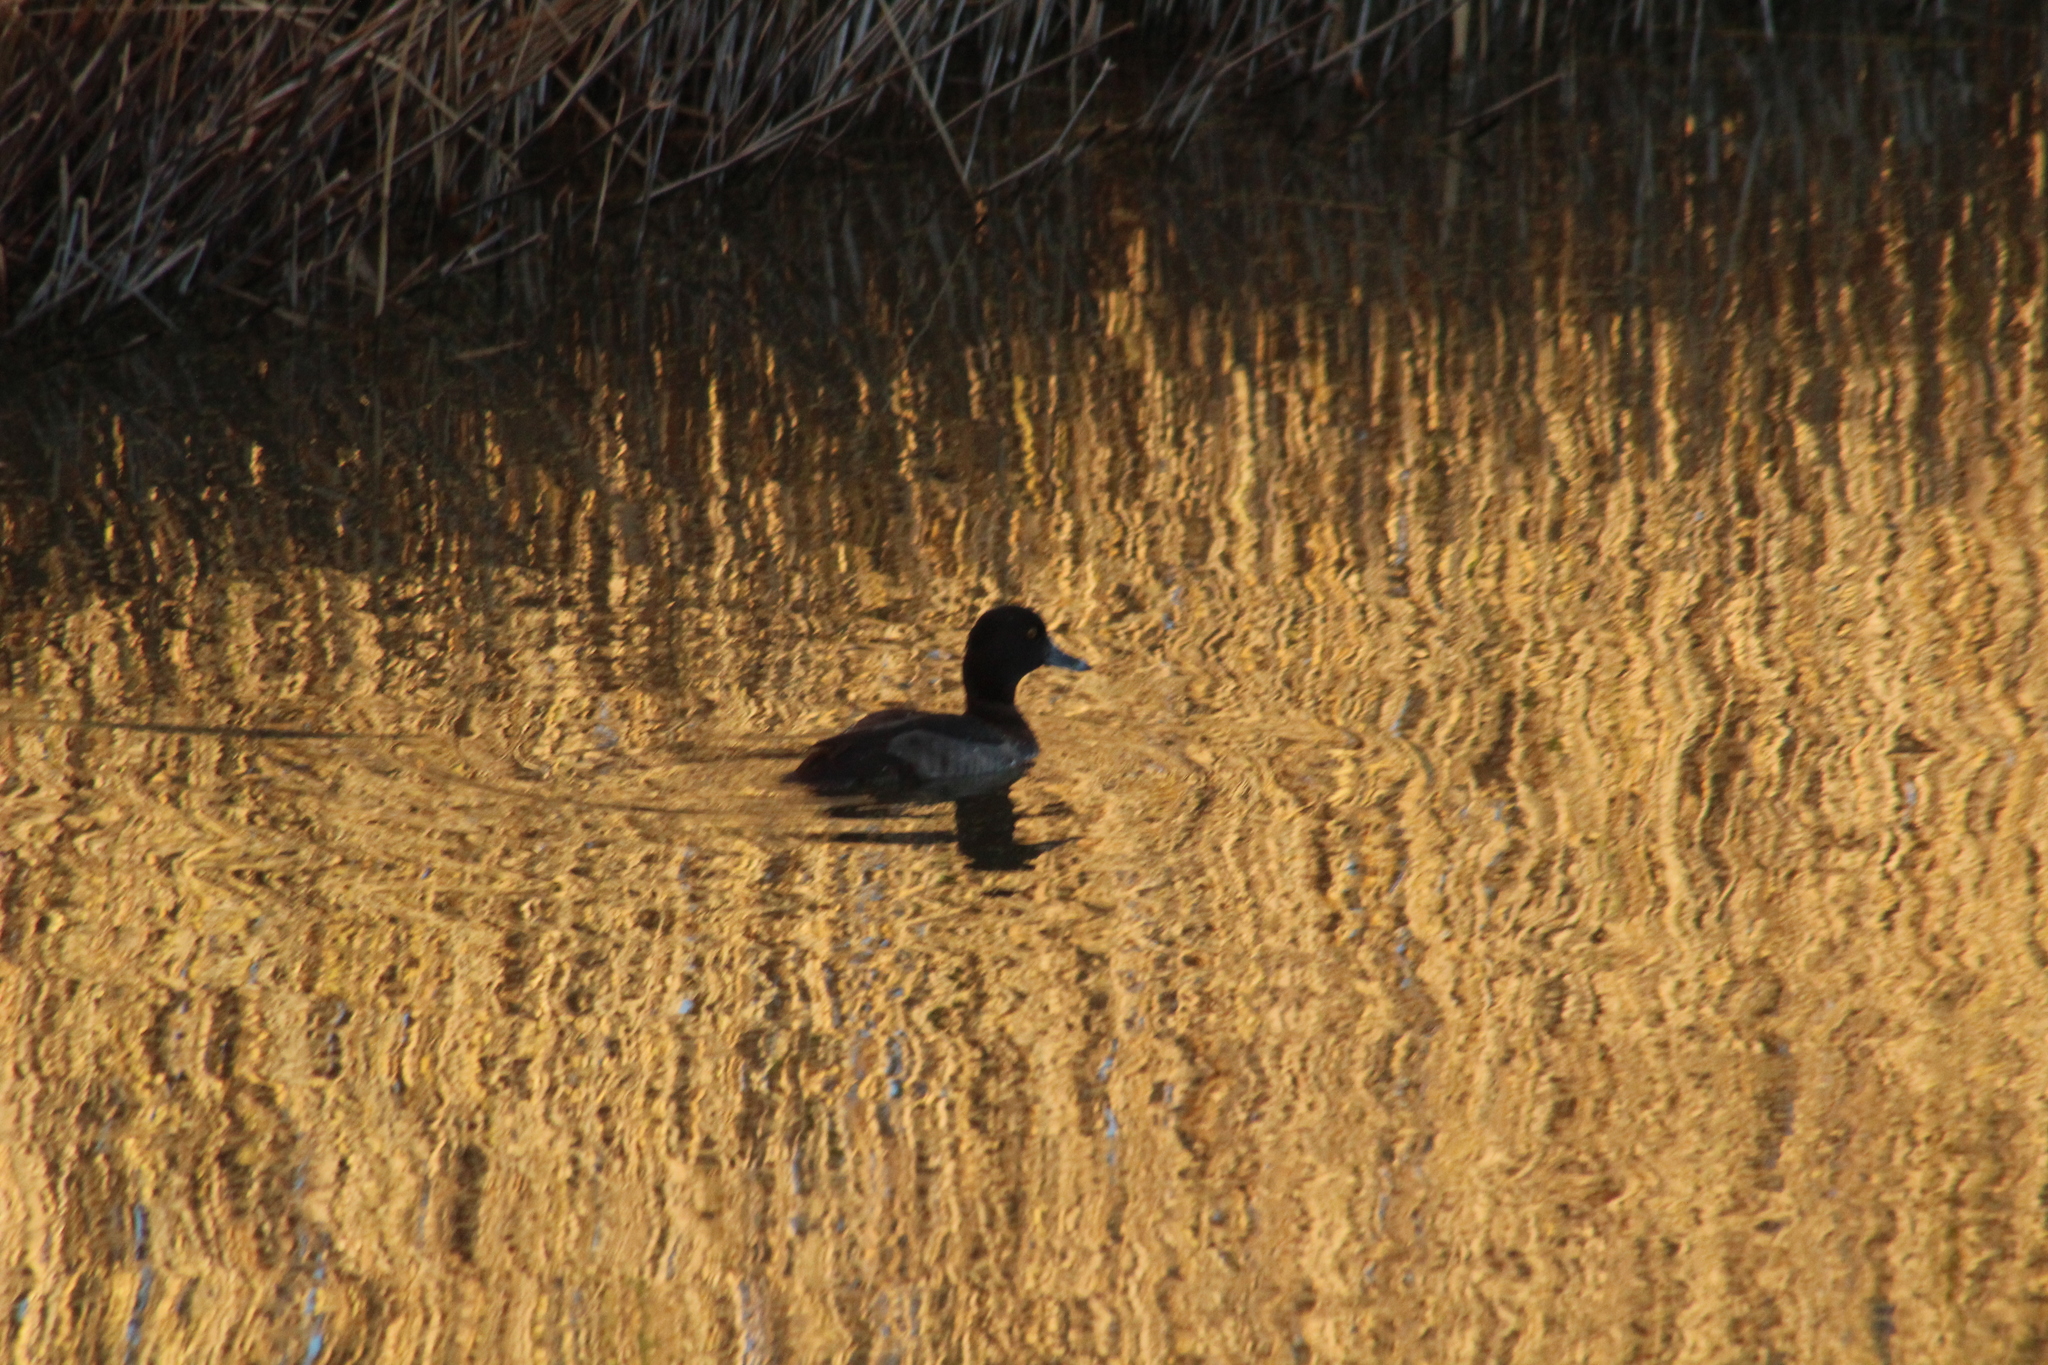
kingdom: Animalia
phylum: Chordata
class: Aves
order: Anseriformes
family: Anatidae
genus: Aythya
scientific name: Aythya fuligula
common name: Tufted duck
